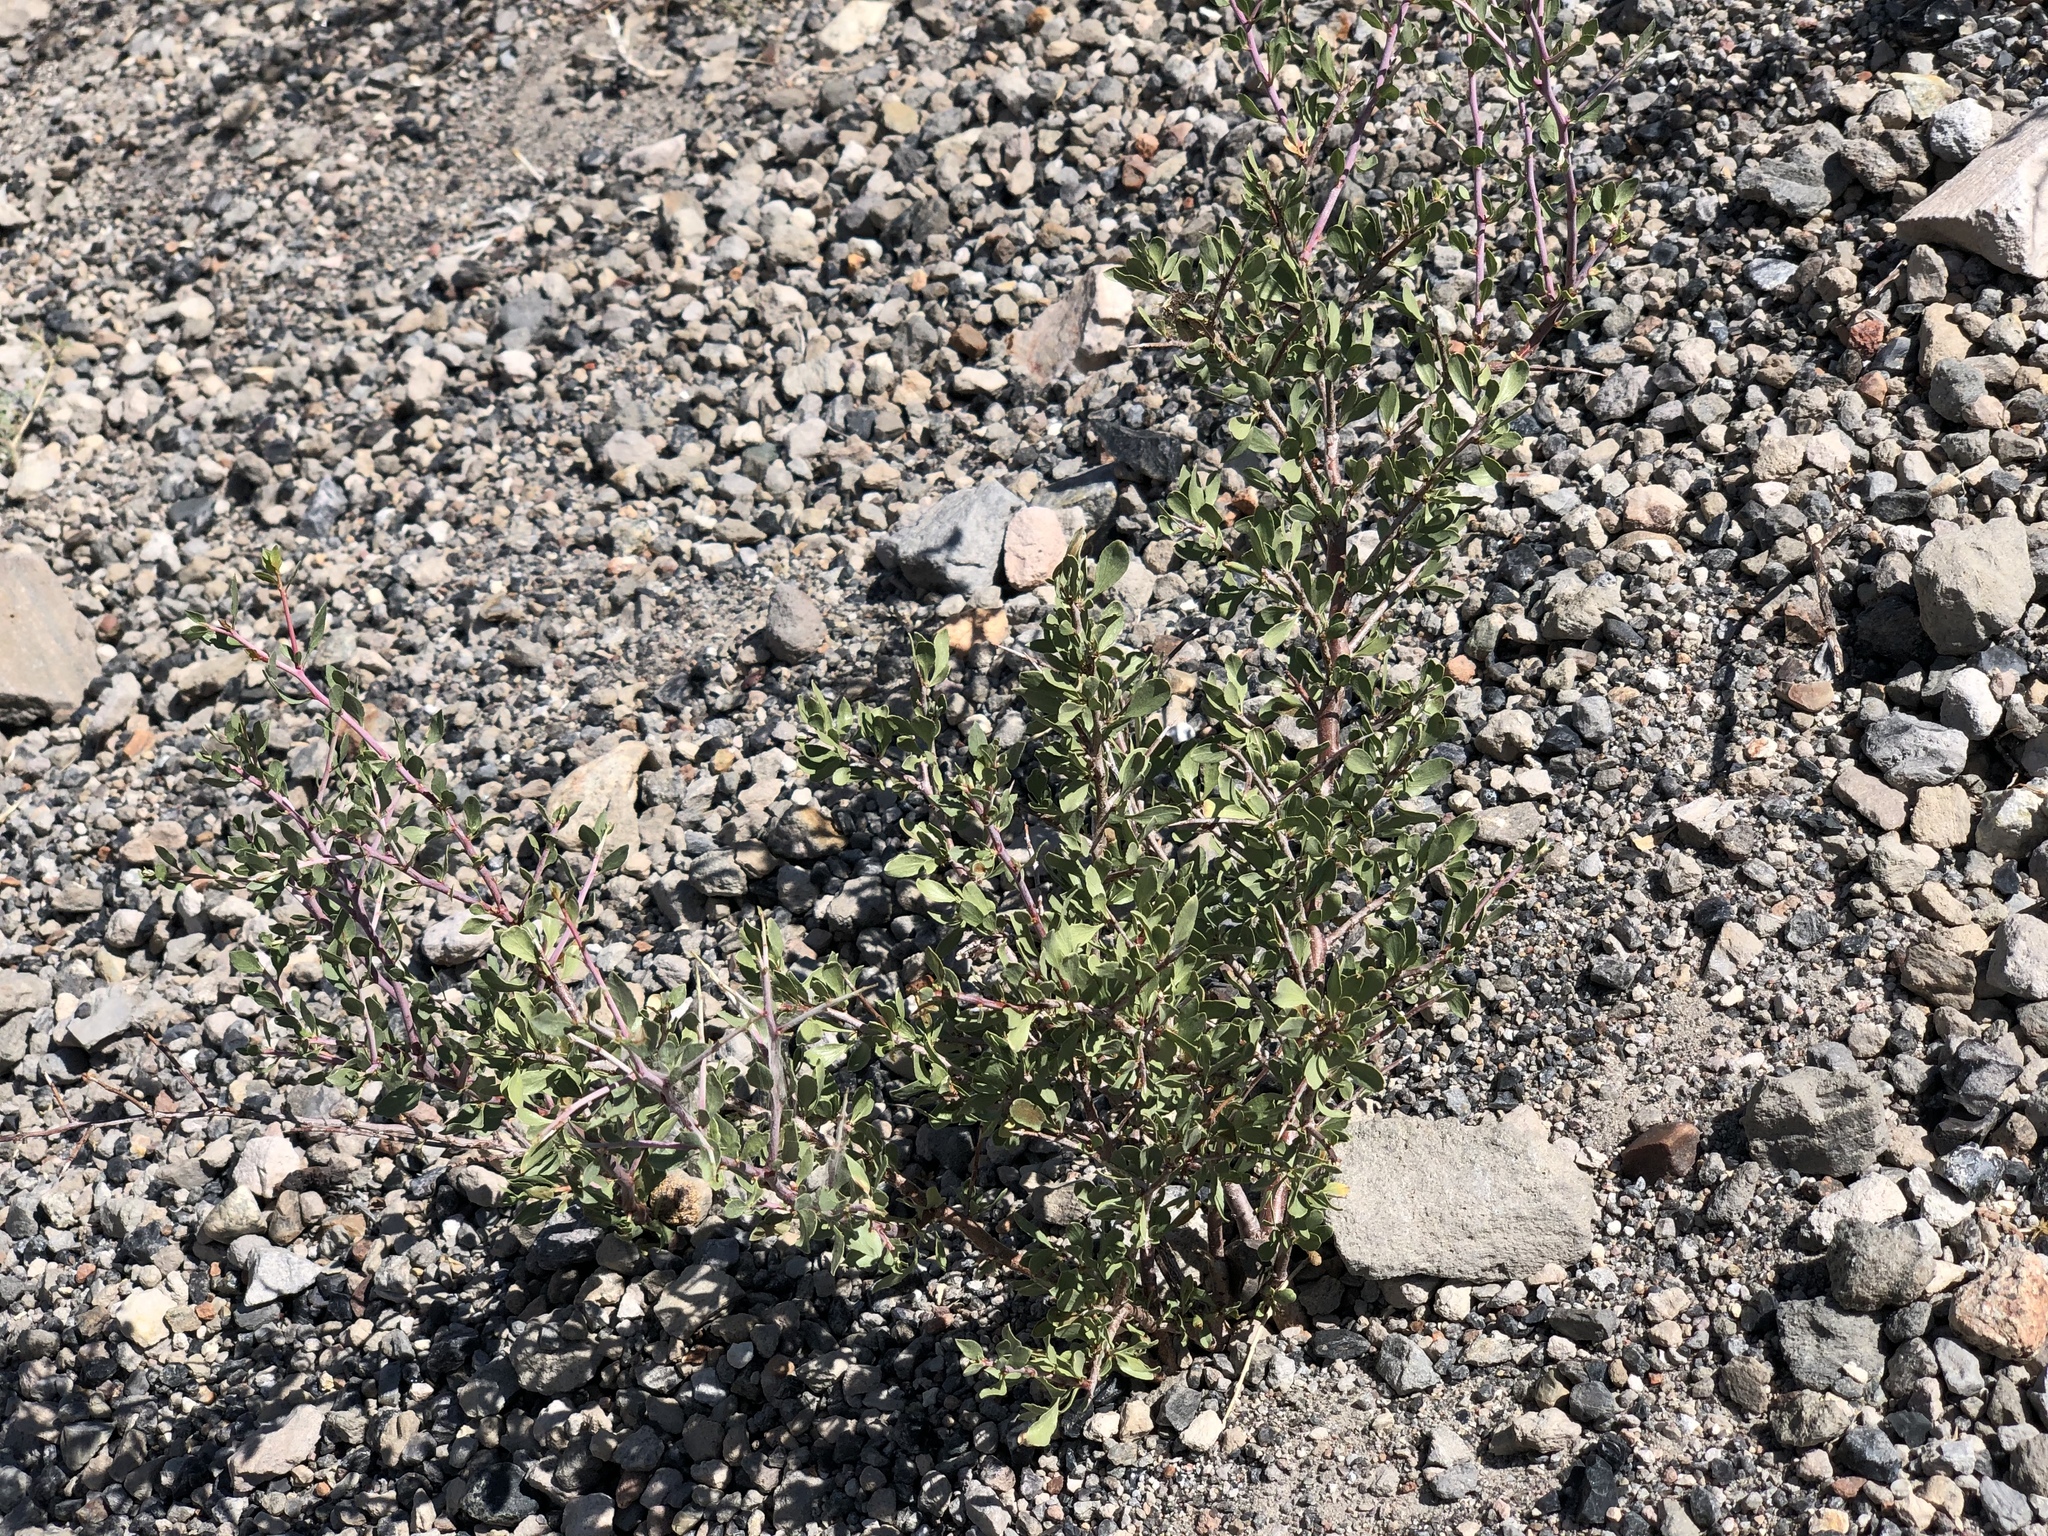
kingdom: Plantae
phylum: Tracheophyta
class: Magnoliopsida
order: Rosales
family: Rosaceae
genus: Prunus
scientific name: Prunus andersonii
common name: Desert peach
